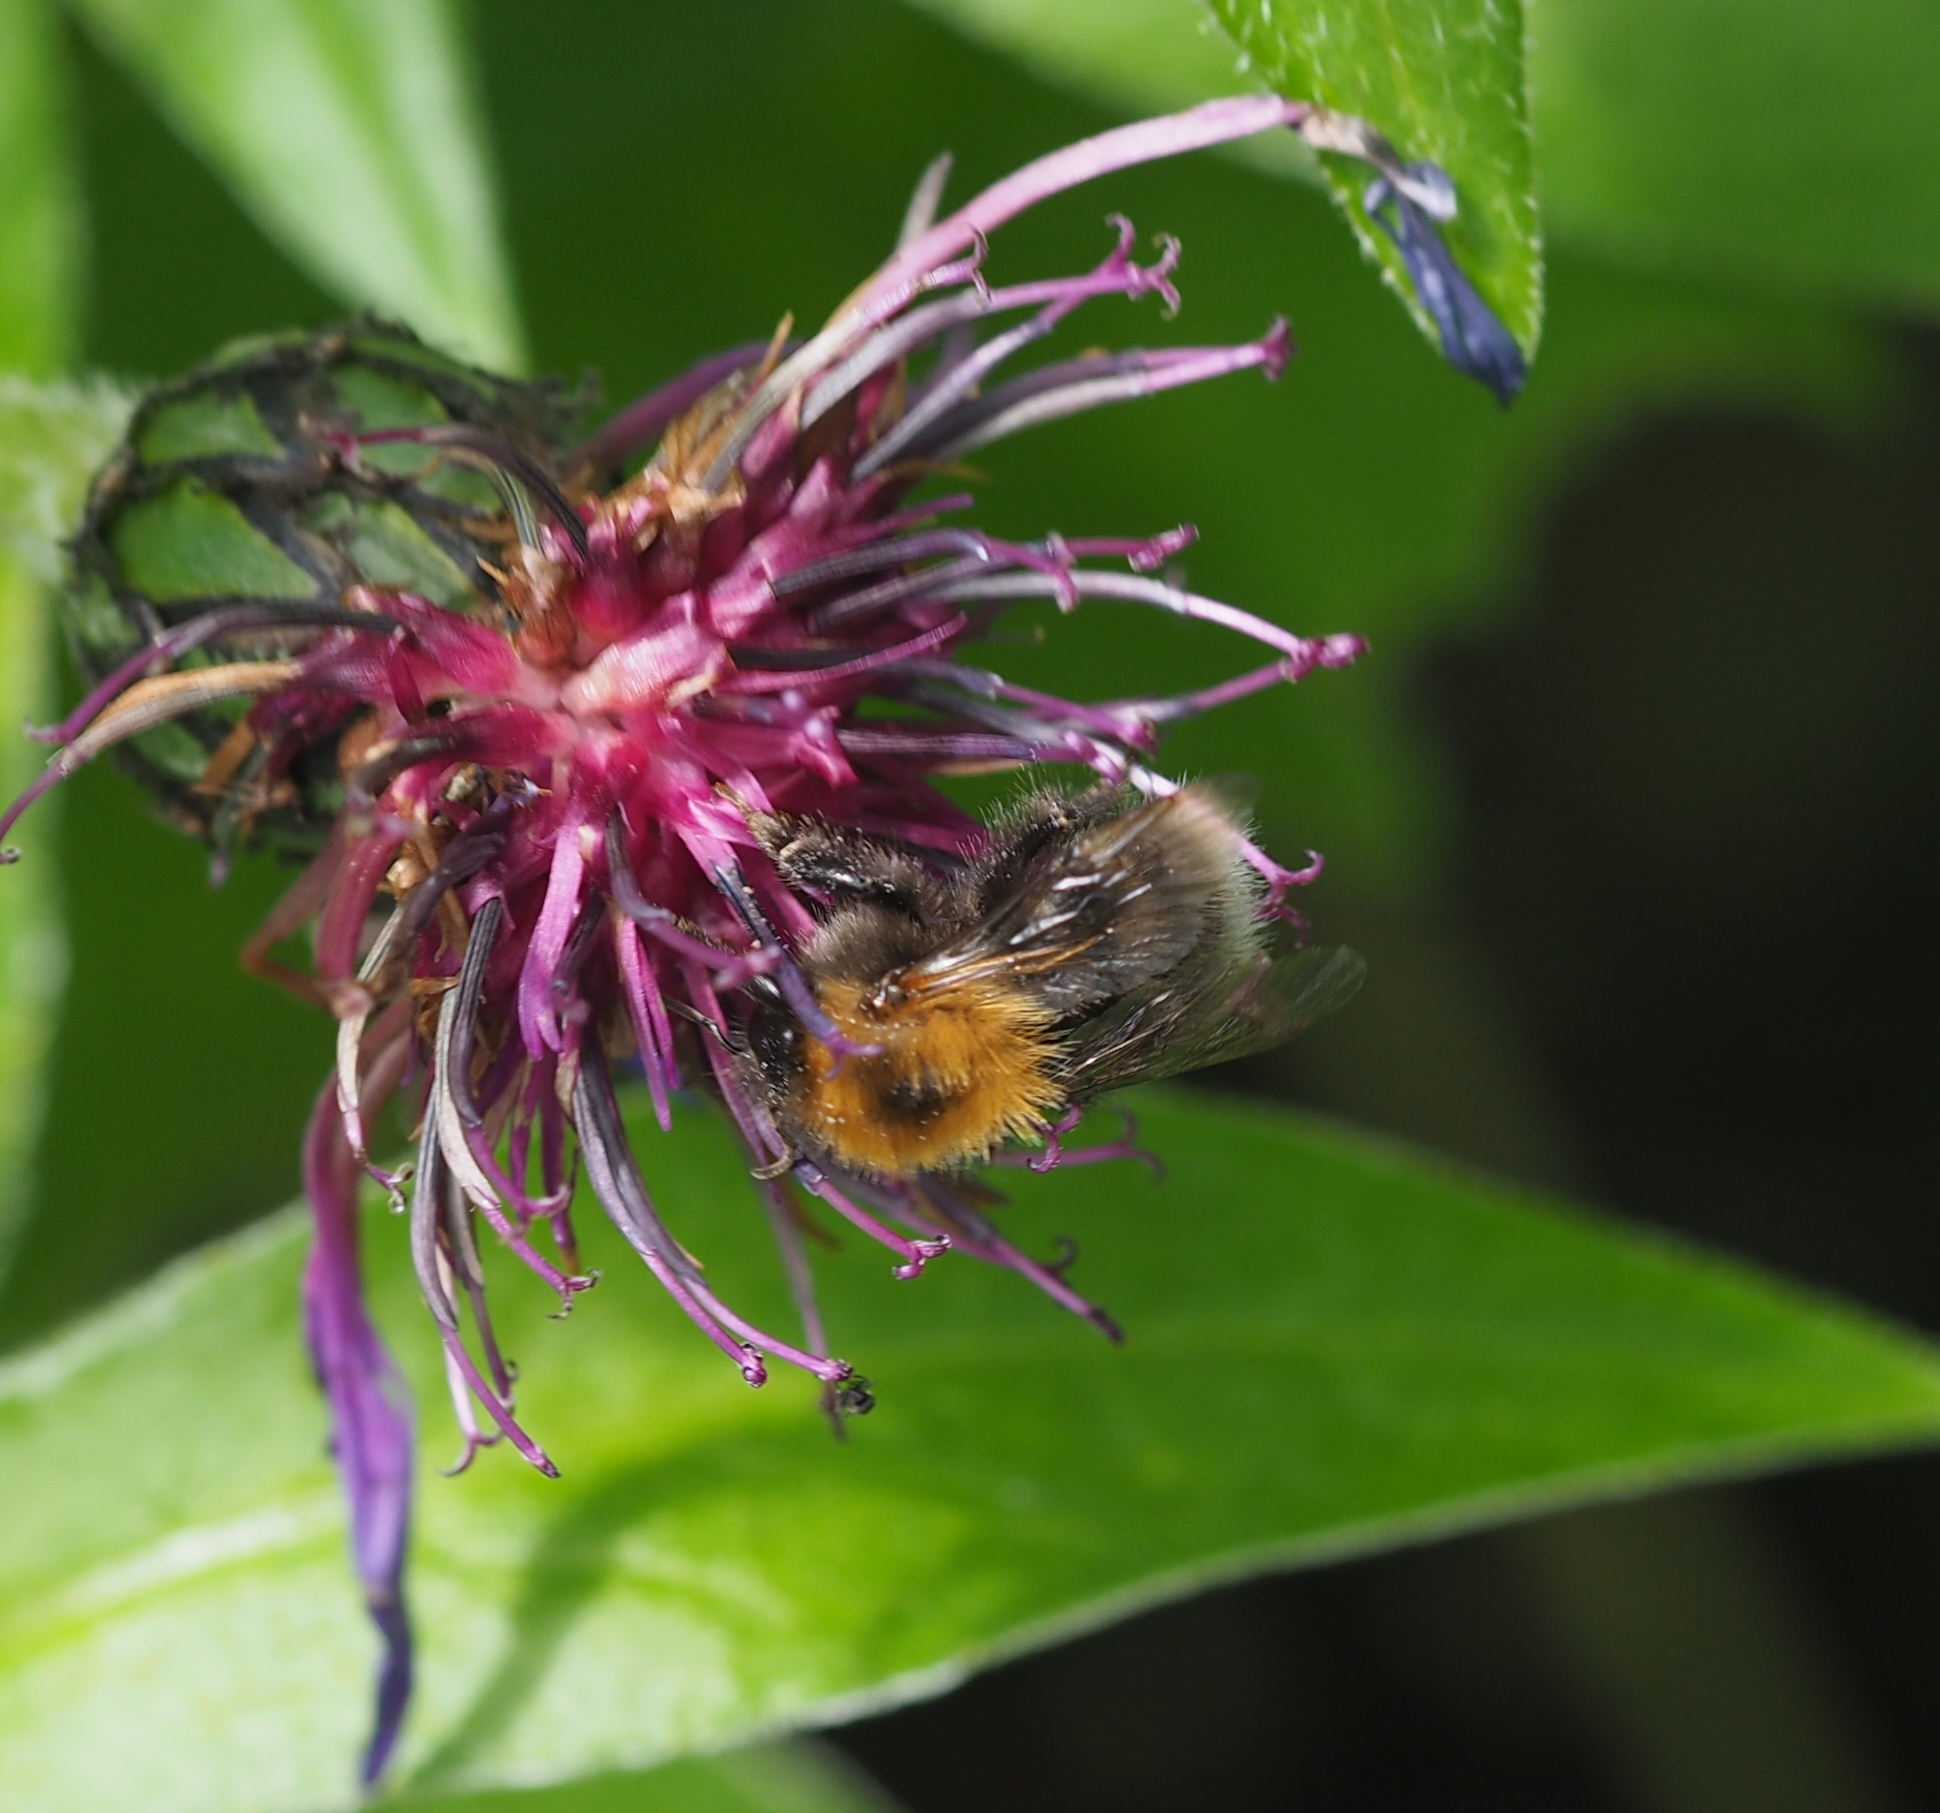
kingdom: Animalia
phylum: Arthropoda
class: Insecta
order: Hymenoptera
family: Apidae
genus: Bombus
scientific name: Bombus hypnorum
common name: New garden bumblebee
